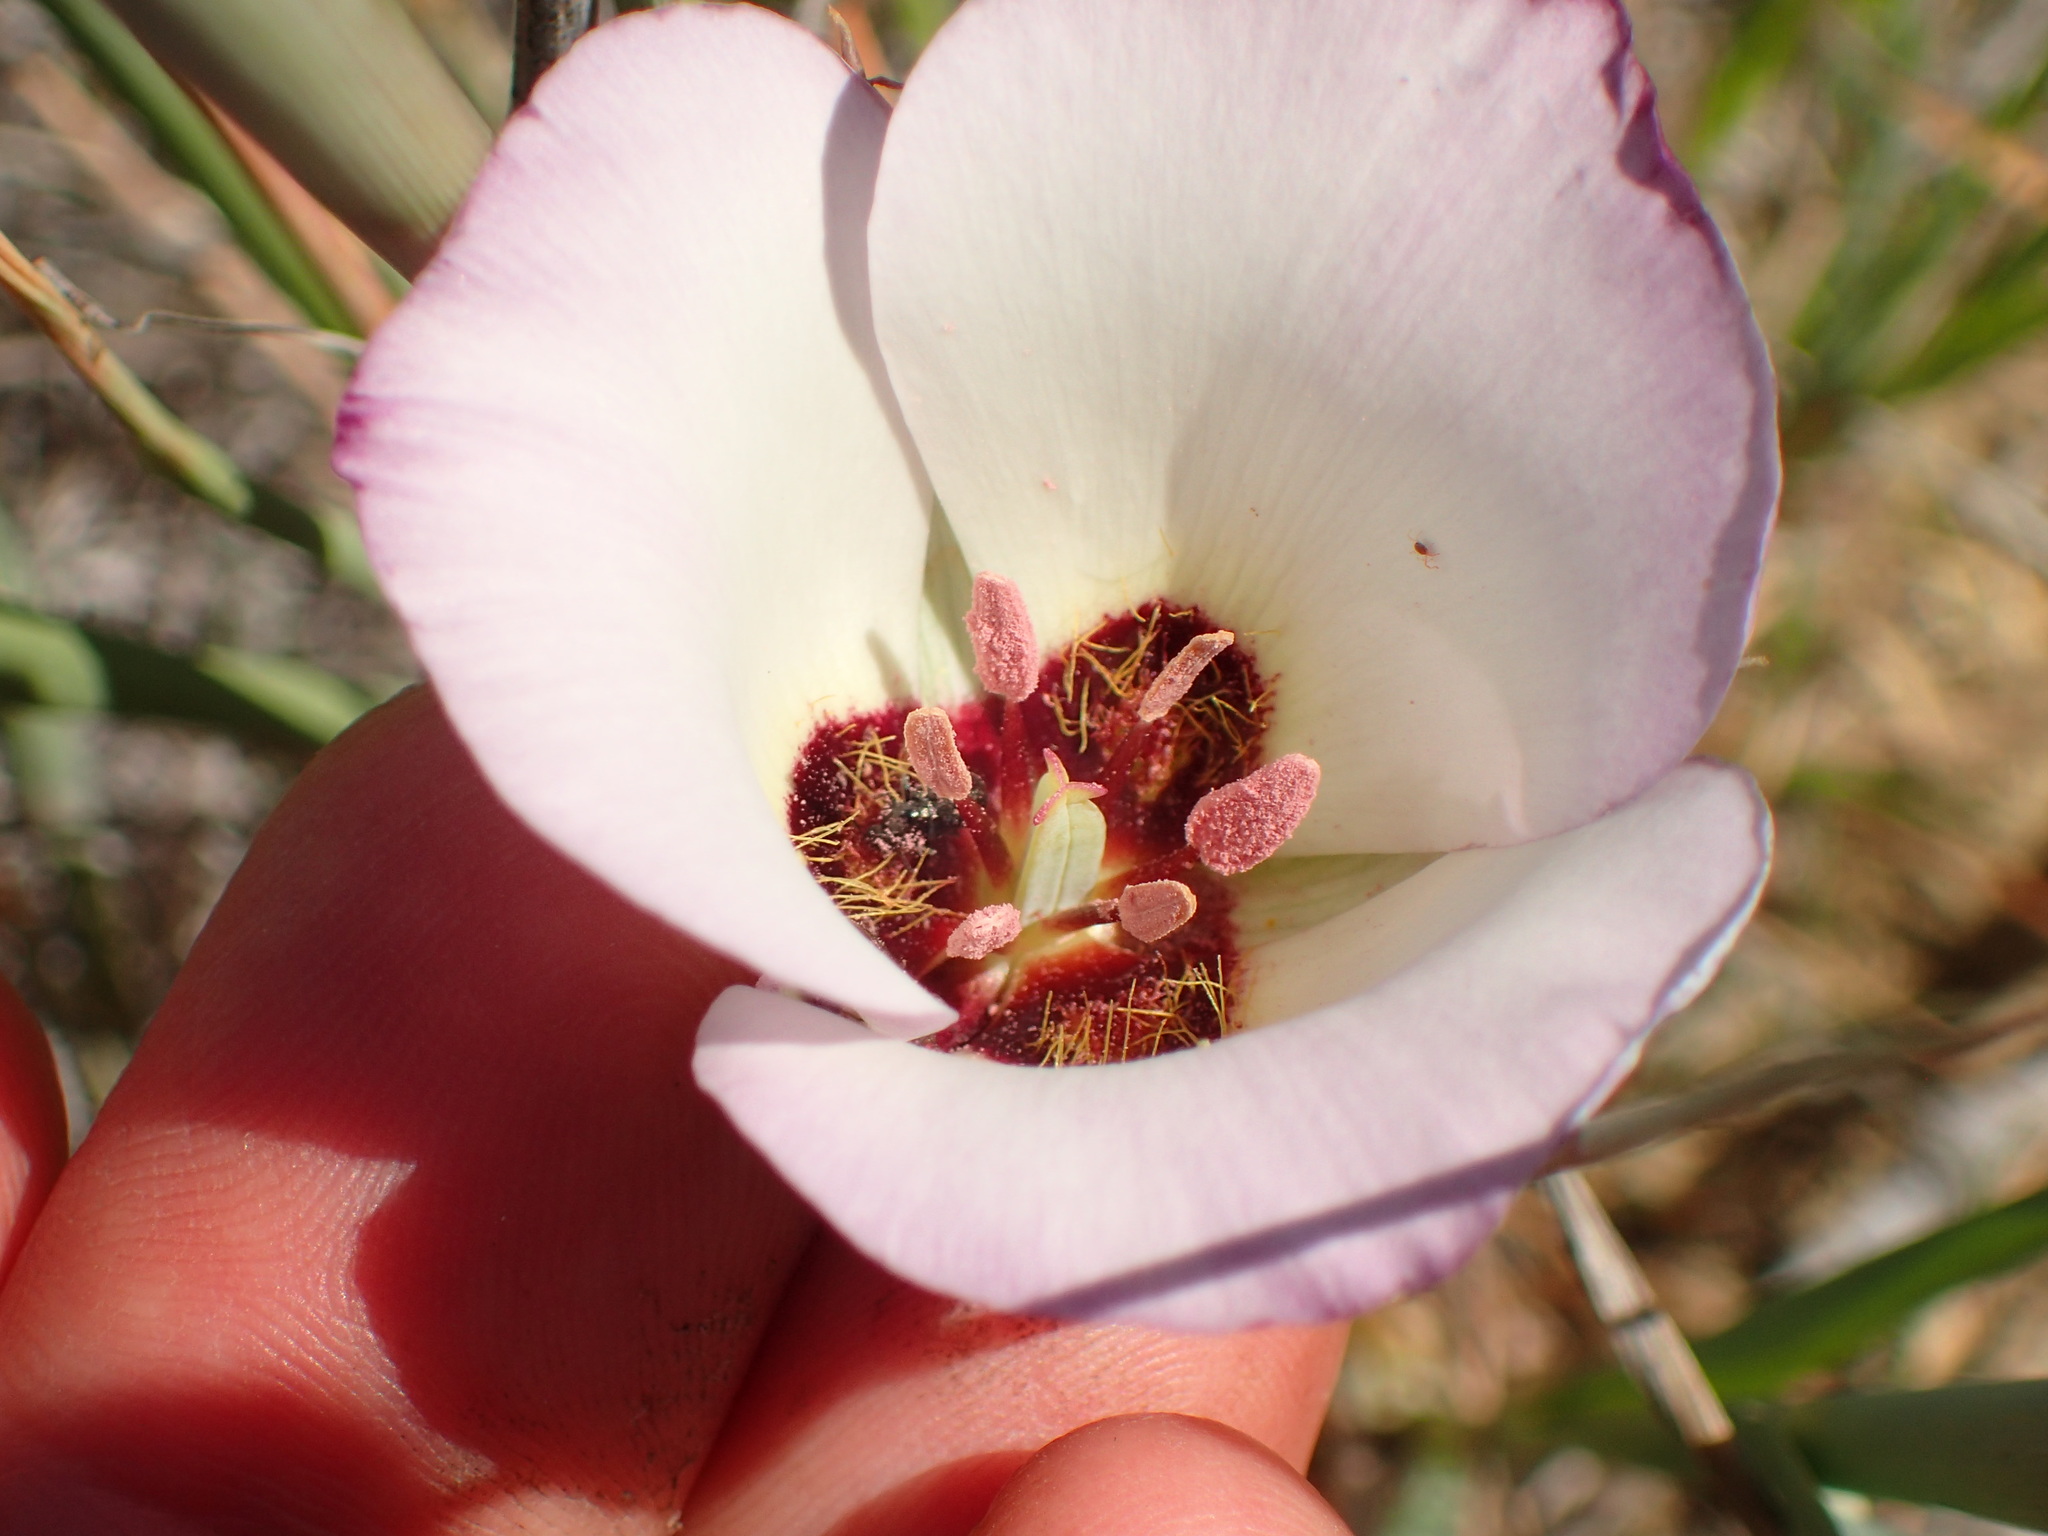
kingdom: Plantae
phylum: Tracheophyta
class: Liliopsida
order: Liliales
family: Liliaceae
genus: Calochortus
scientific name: Calochortus catalinae
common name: Catalina mariposa-lily
